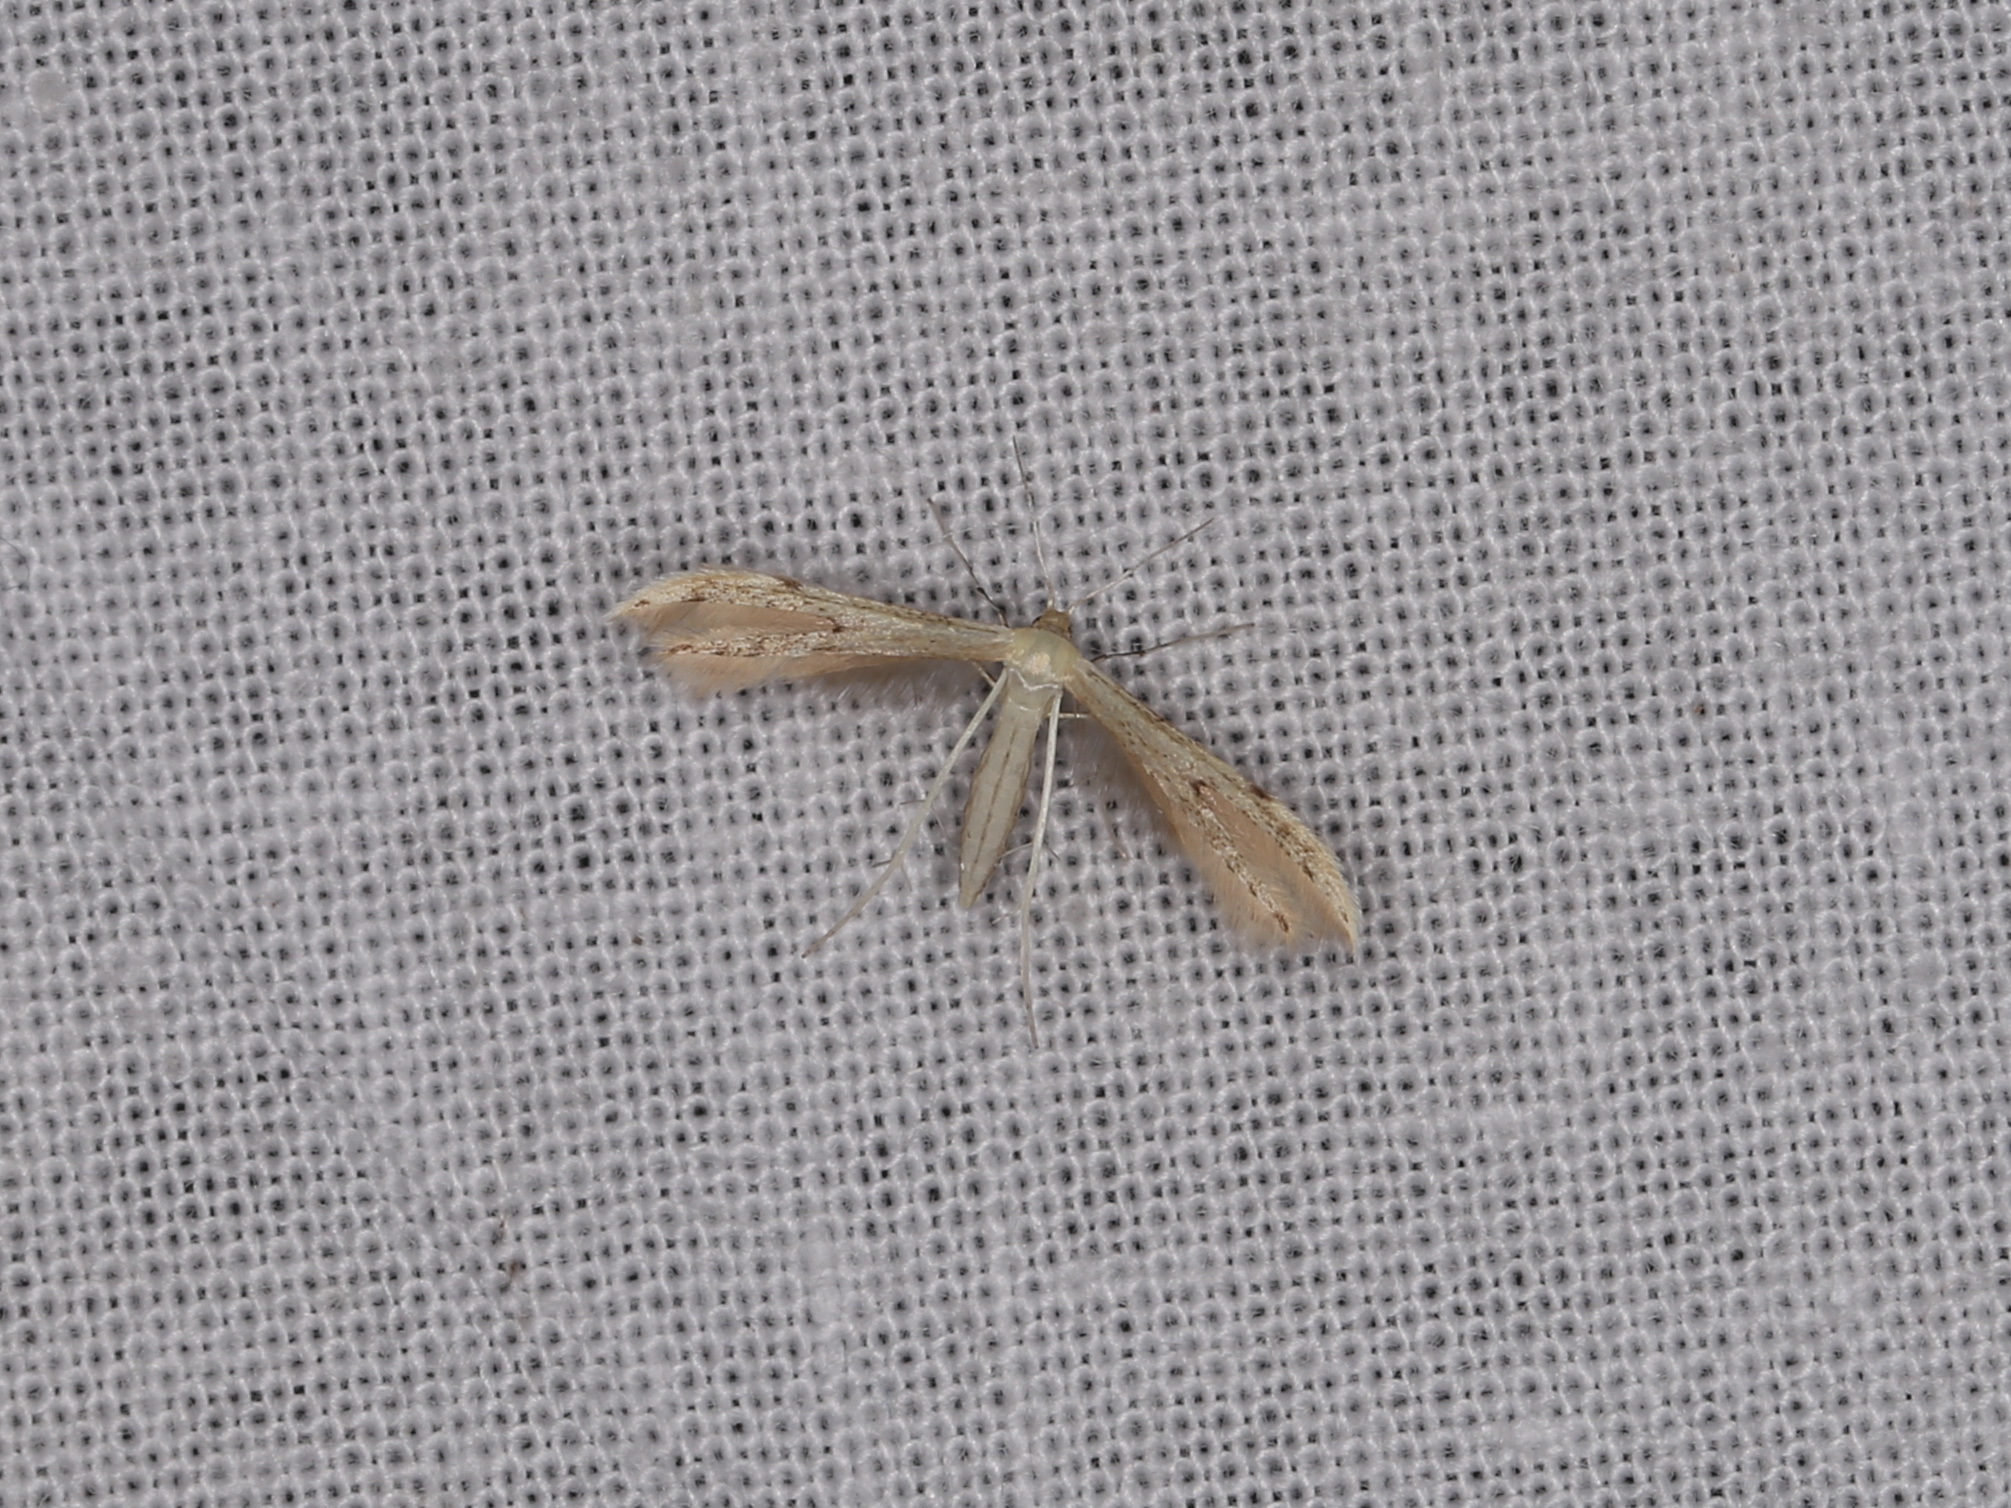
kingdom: Animalia
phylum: Arthropoda
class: Insecta
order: Lepidoptera
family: Pterophoridae
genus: Adaina
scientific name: Adaina microdactyla
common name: Hemp-agrimony plume
